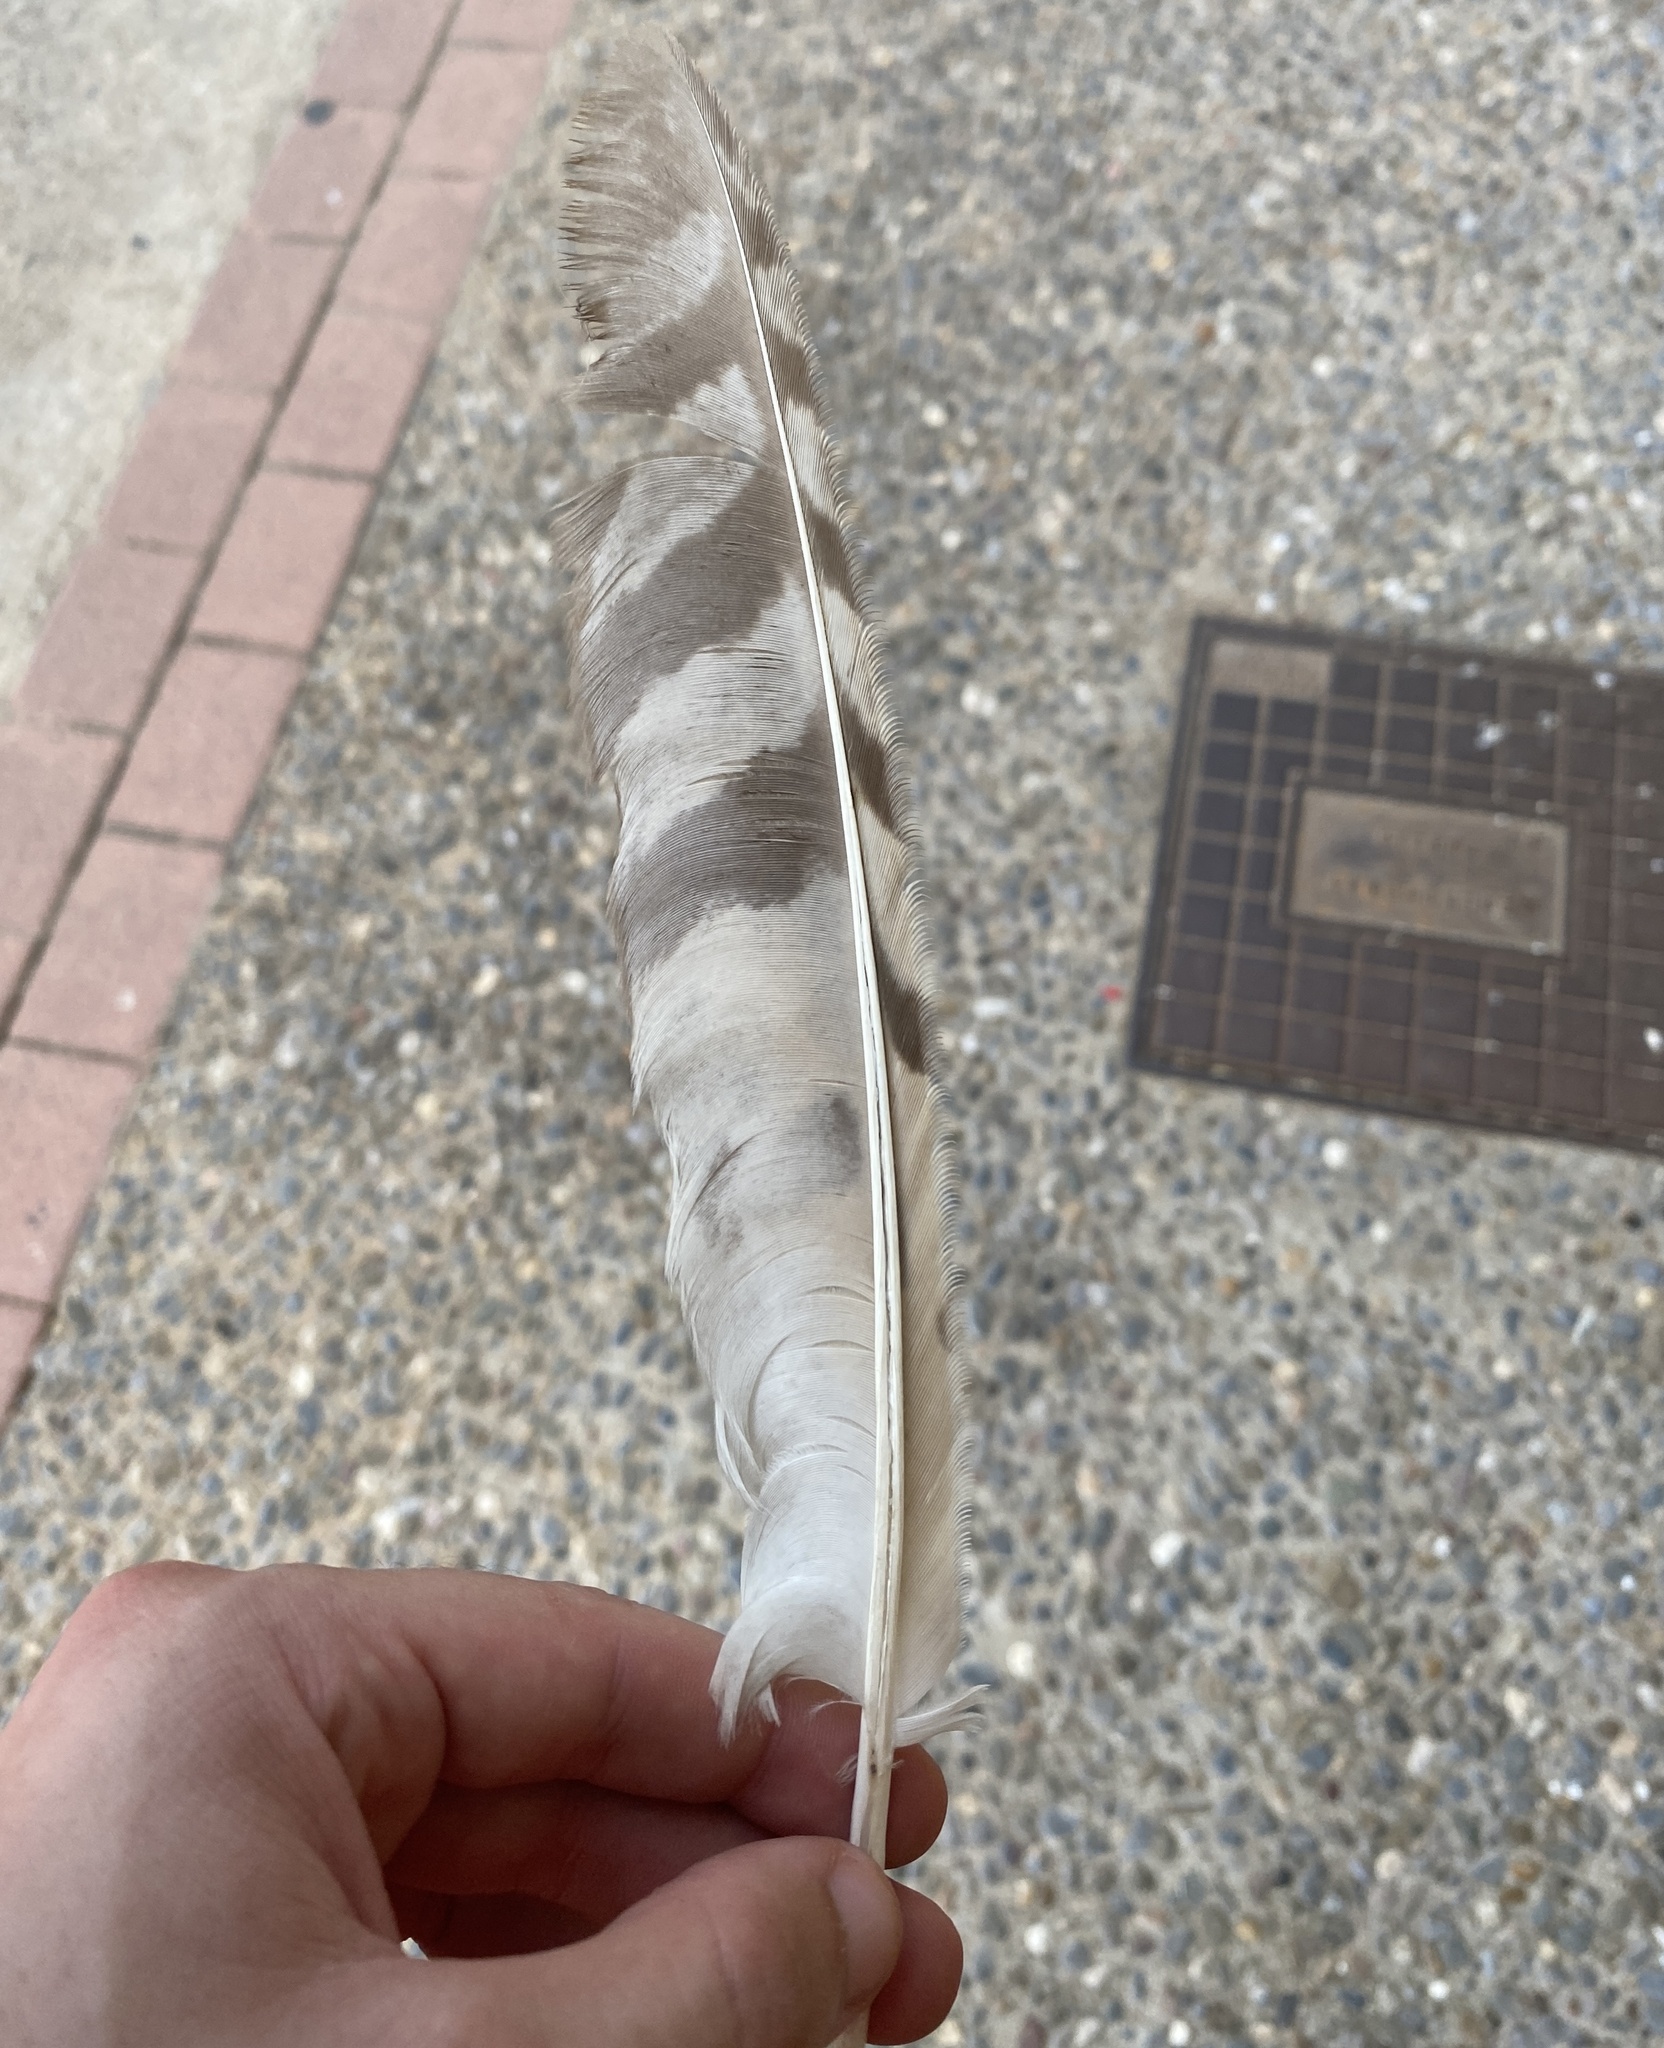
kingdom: Animalia
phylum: Chordata
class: Aves
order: Strigiformes
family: Strigidae
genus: Asio
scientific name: Asio otus
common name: Long-eared owl
